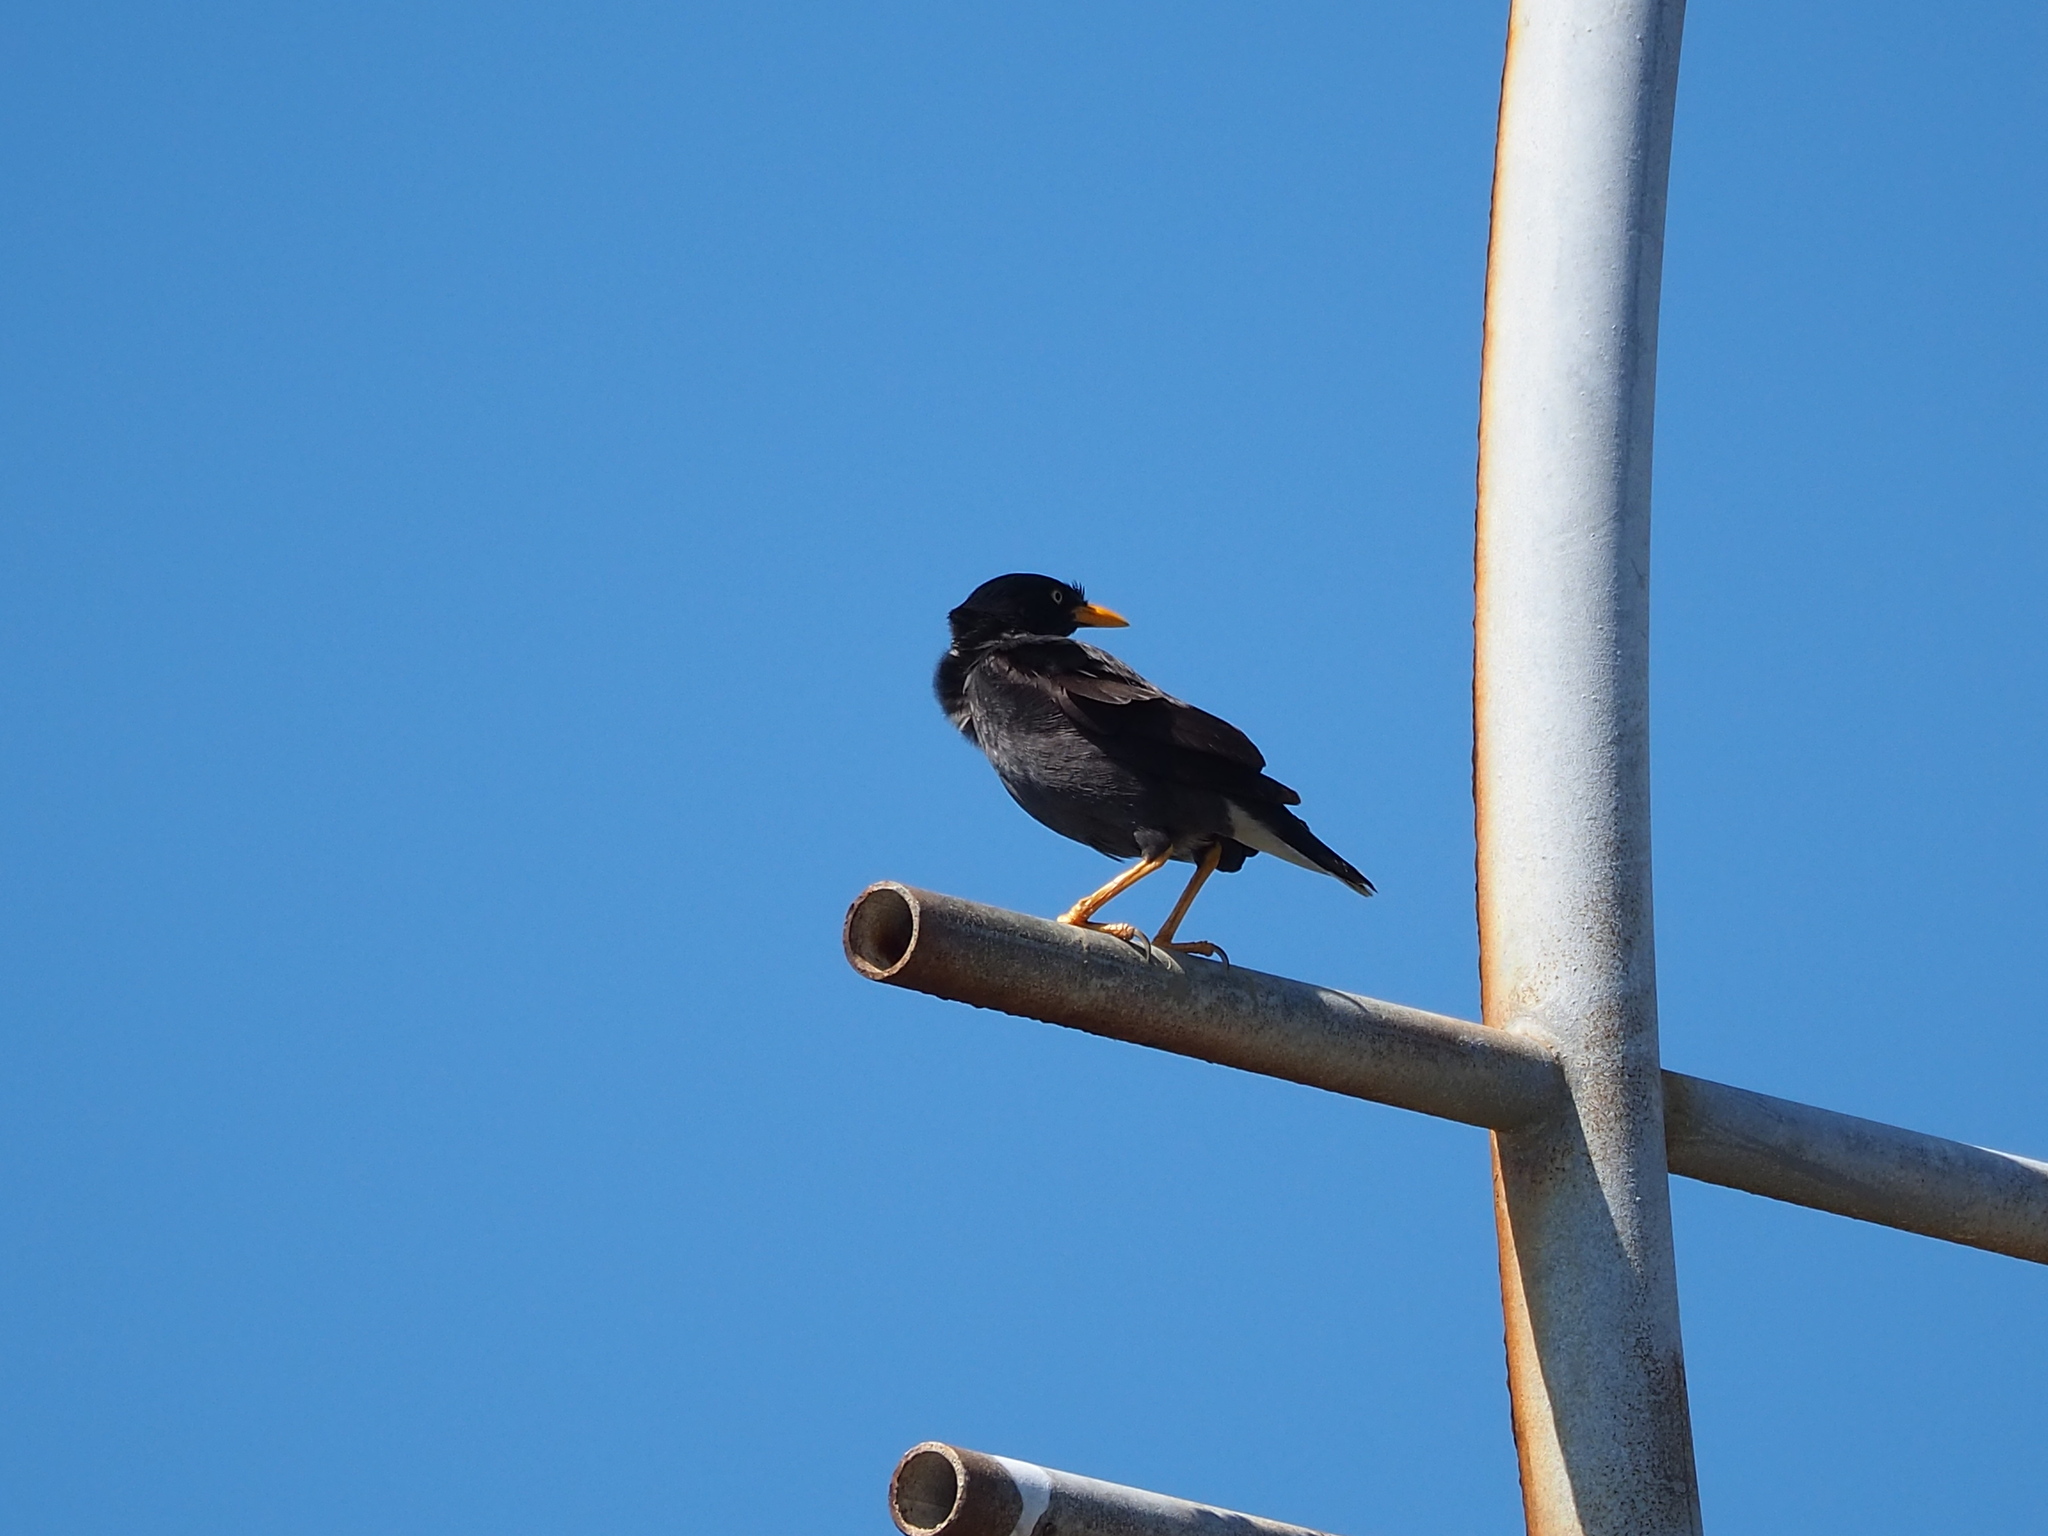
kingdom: Animalia
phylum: Chordata
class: Aves
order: Passeriformes
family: Sturnidae
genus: Acridotheres
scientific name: Acridotheres javanicus
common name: Javan myna
